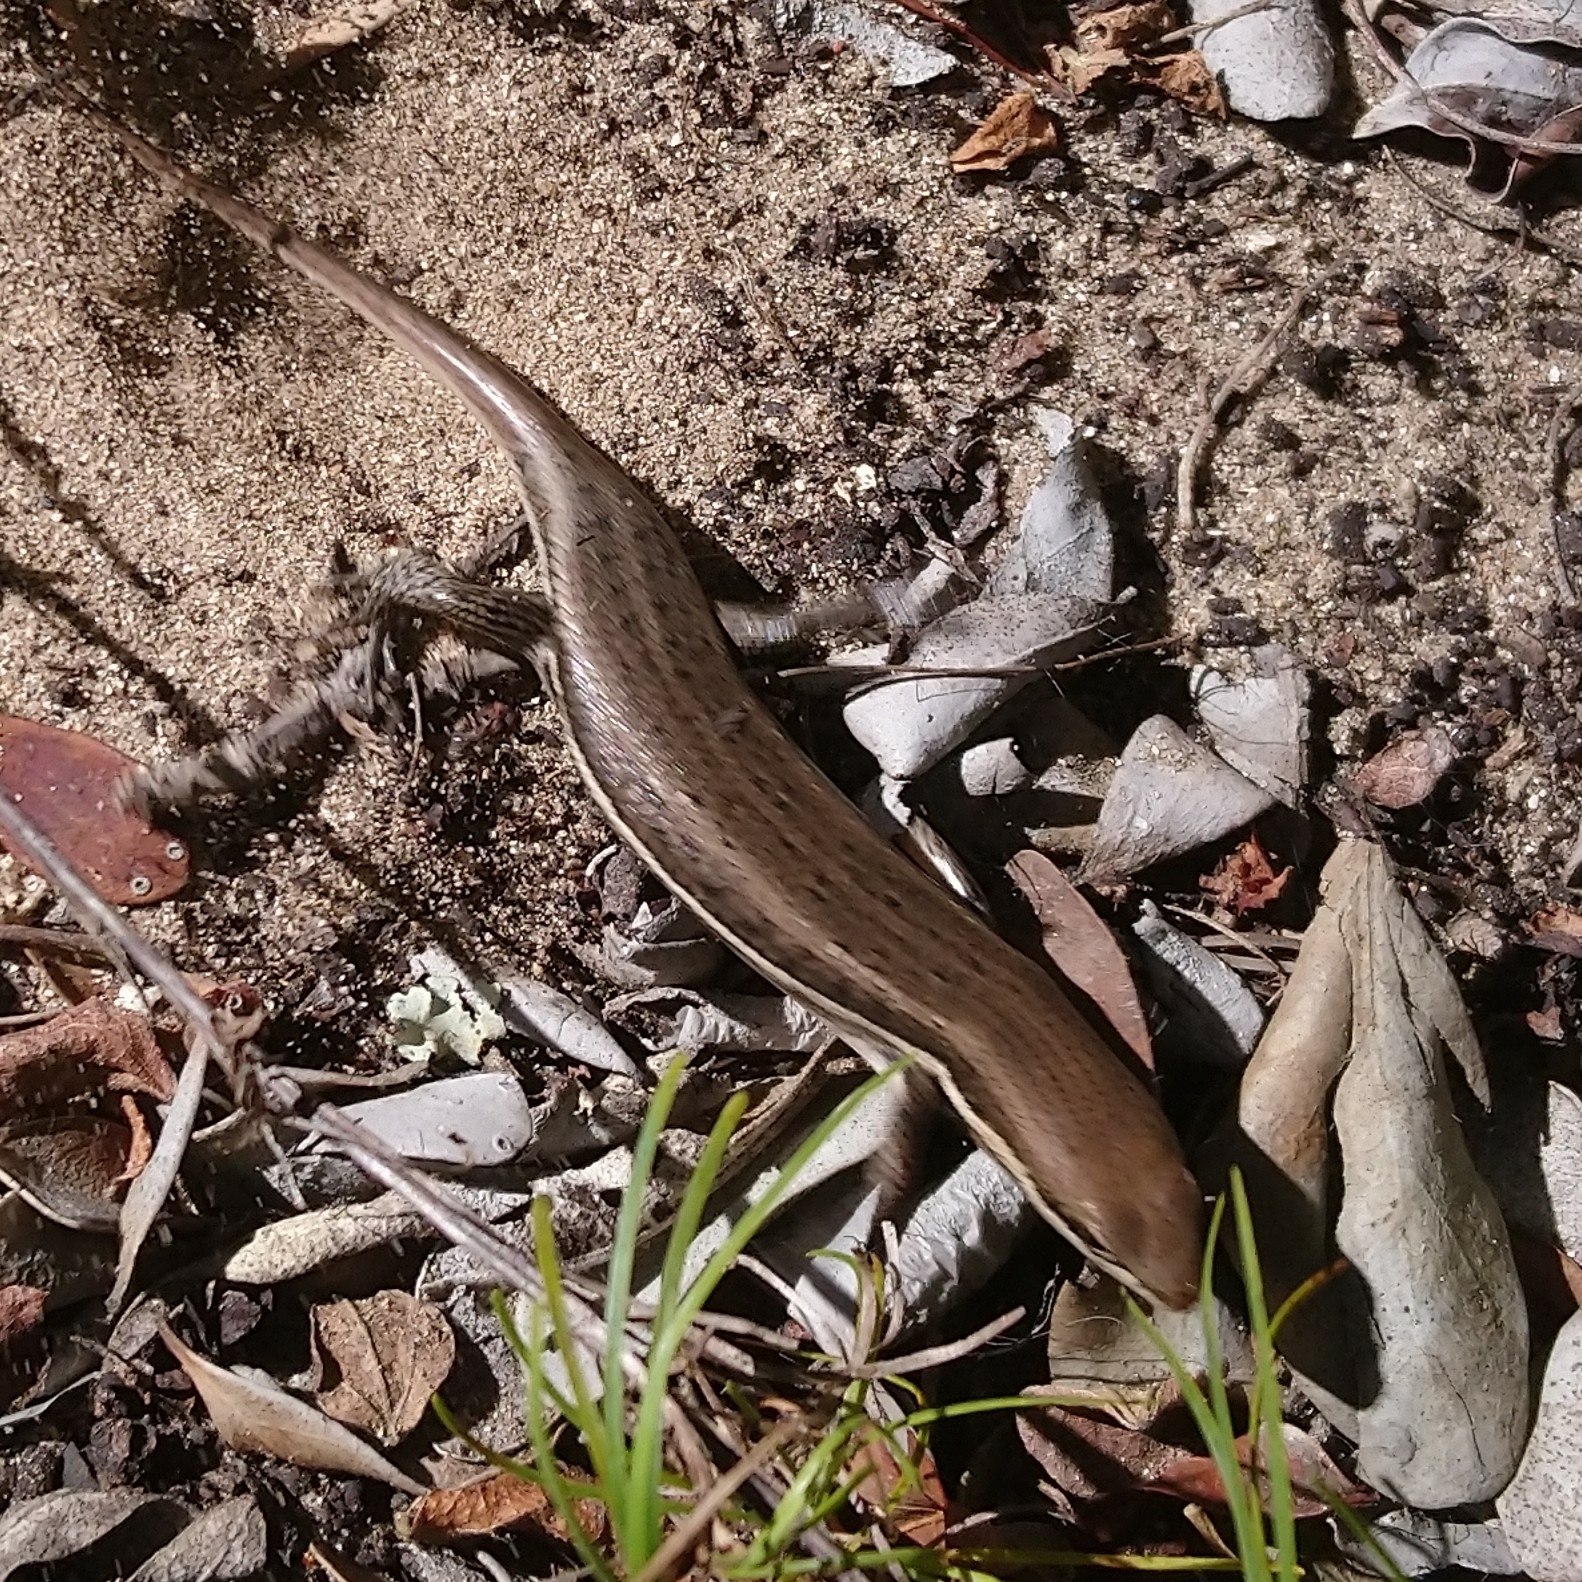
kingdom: Animalia
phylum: Chordata
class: Squamata
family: Scincidae
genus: Trachylepis
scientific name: Trachylepis varia
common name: Eastern variable skink
